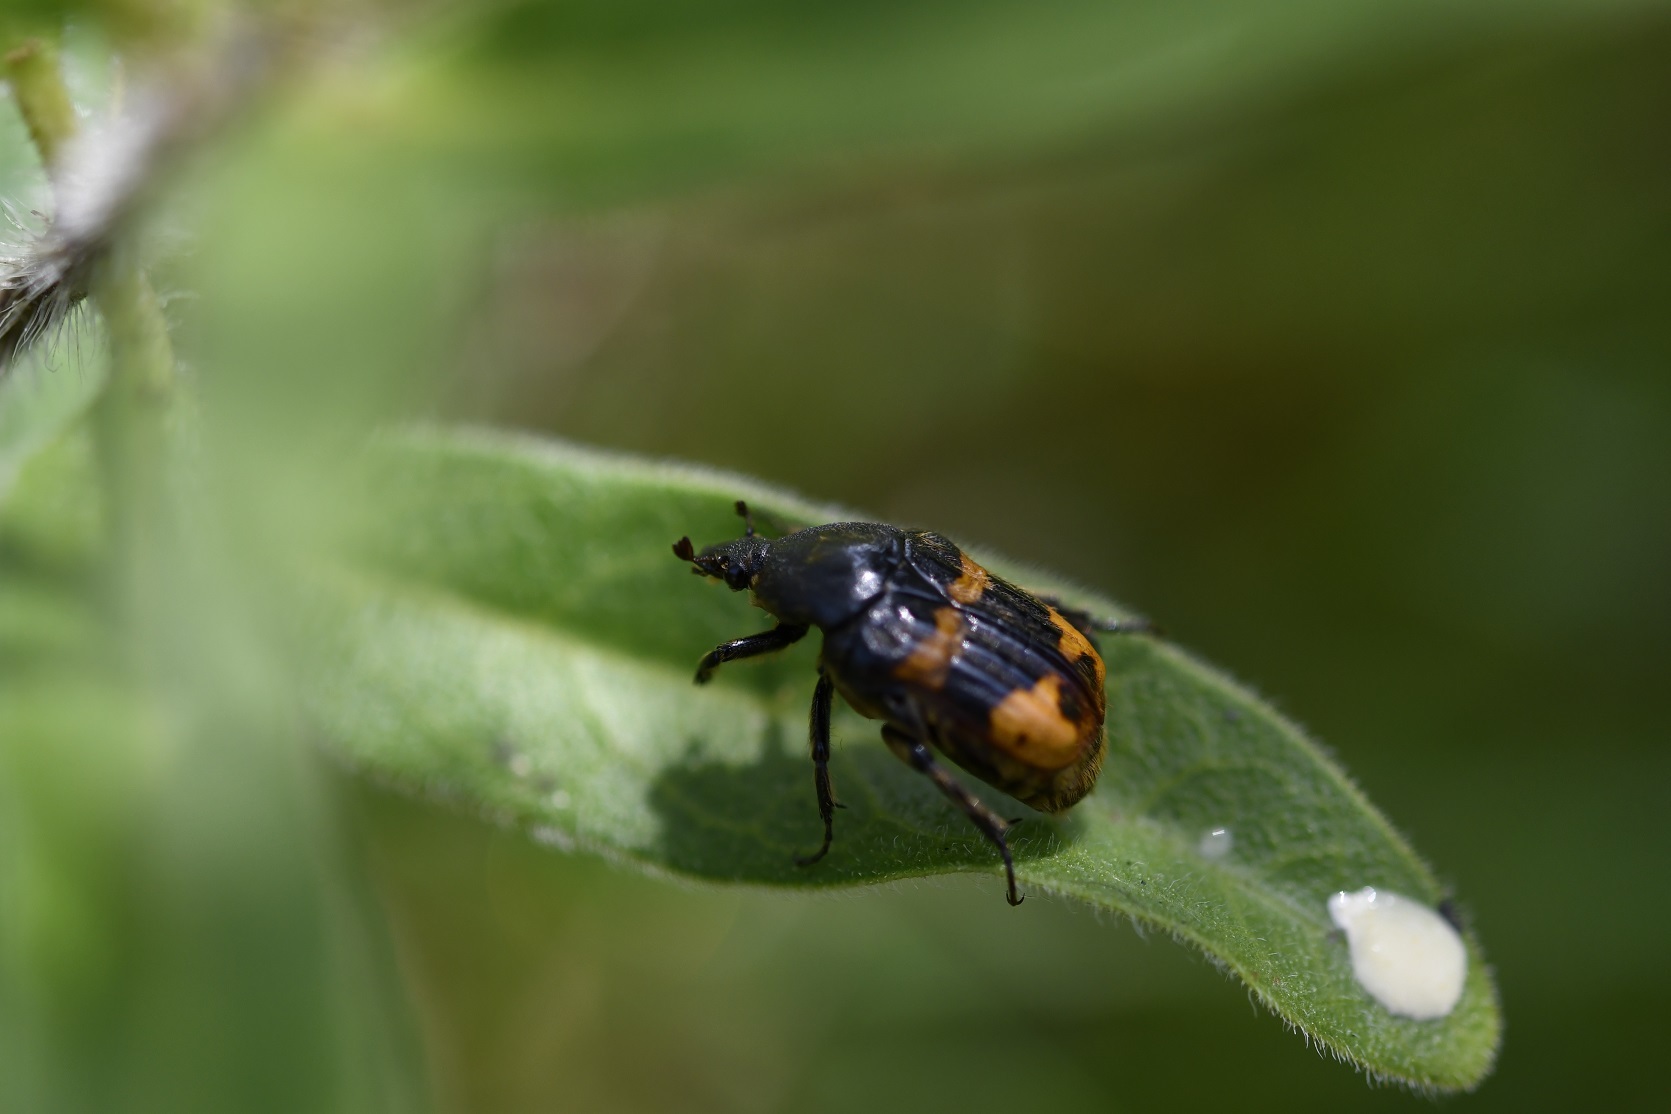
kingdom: Animalia
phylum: Arthropoda
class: Insecta
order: Coleoptera
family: Scarabaeidae
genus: Euphoria
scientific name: Euphoria basalis
